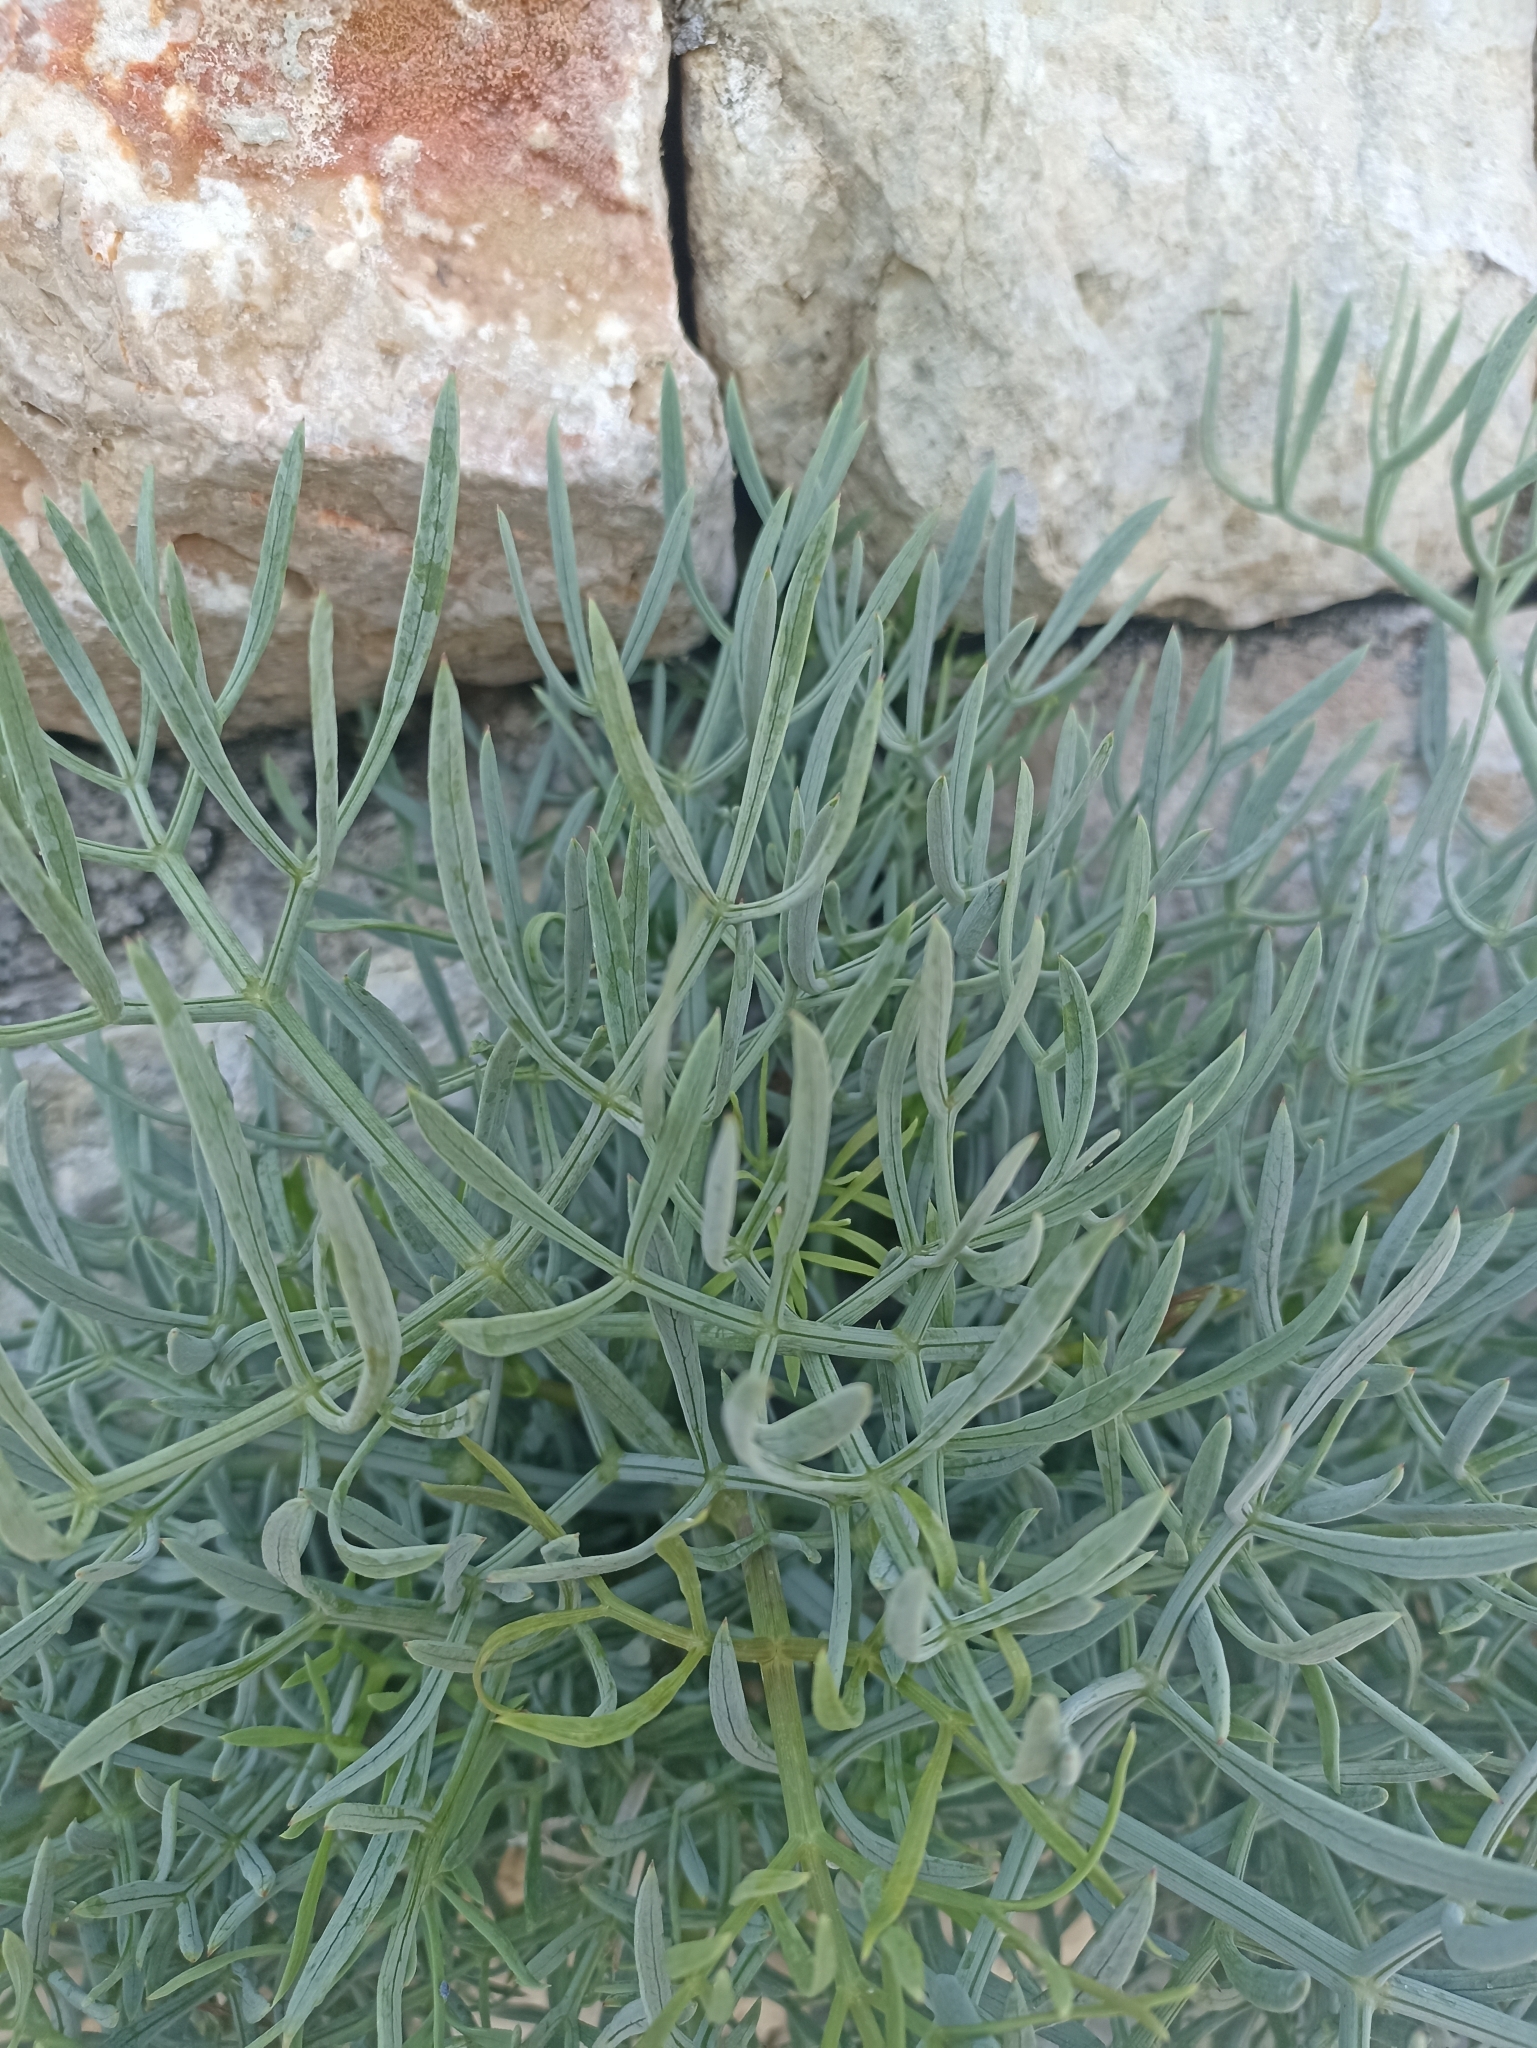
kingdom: Plantae
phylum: Tracheophyta
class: Magnoliopsida
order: Apiales
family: Apiaceae
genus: Crithmum
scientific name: Crithmum maritimum
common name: Rock samphire
